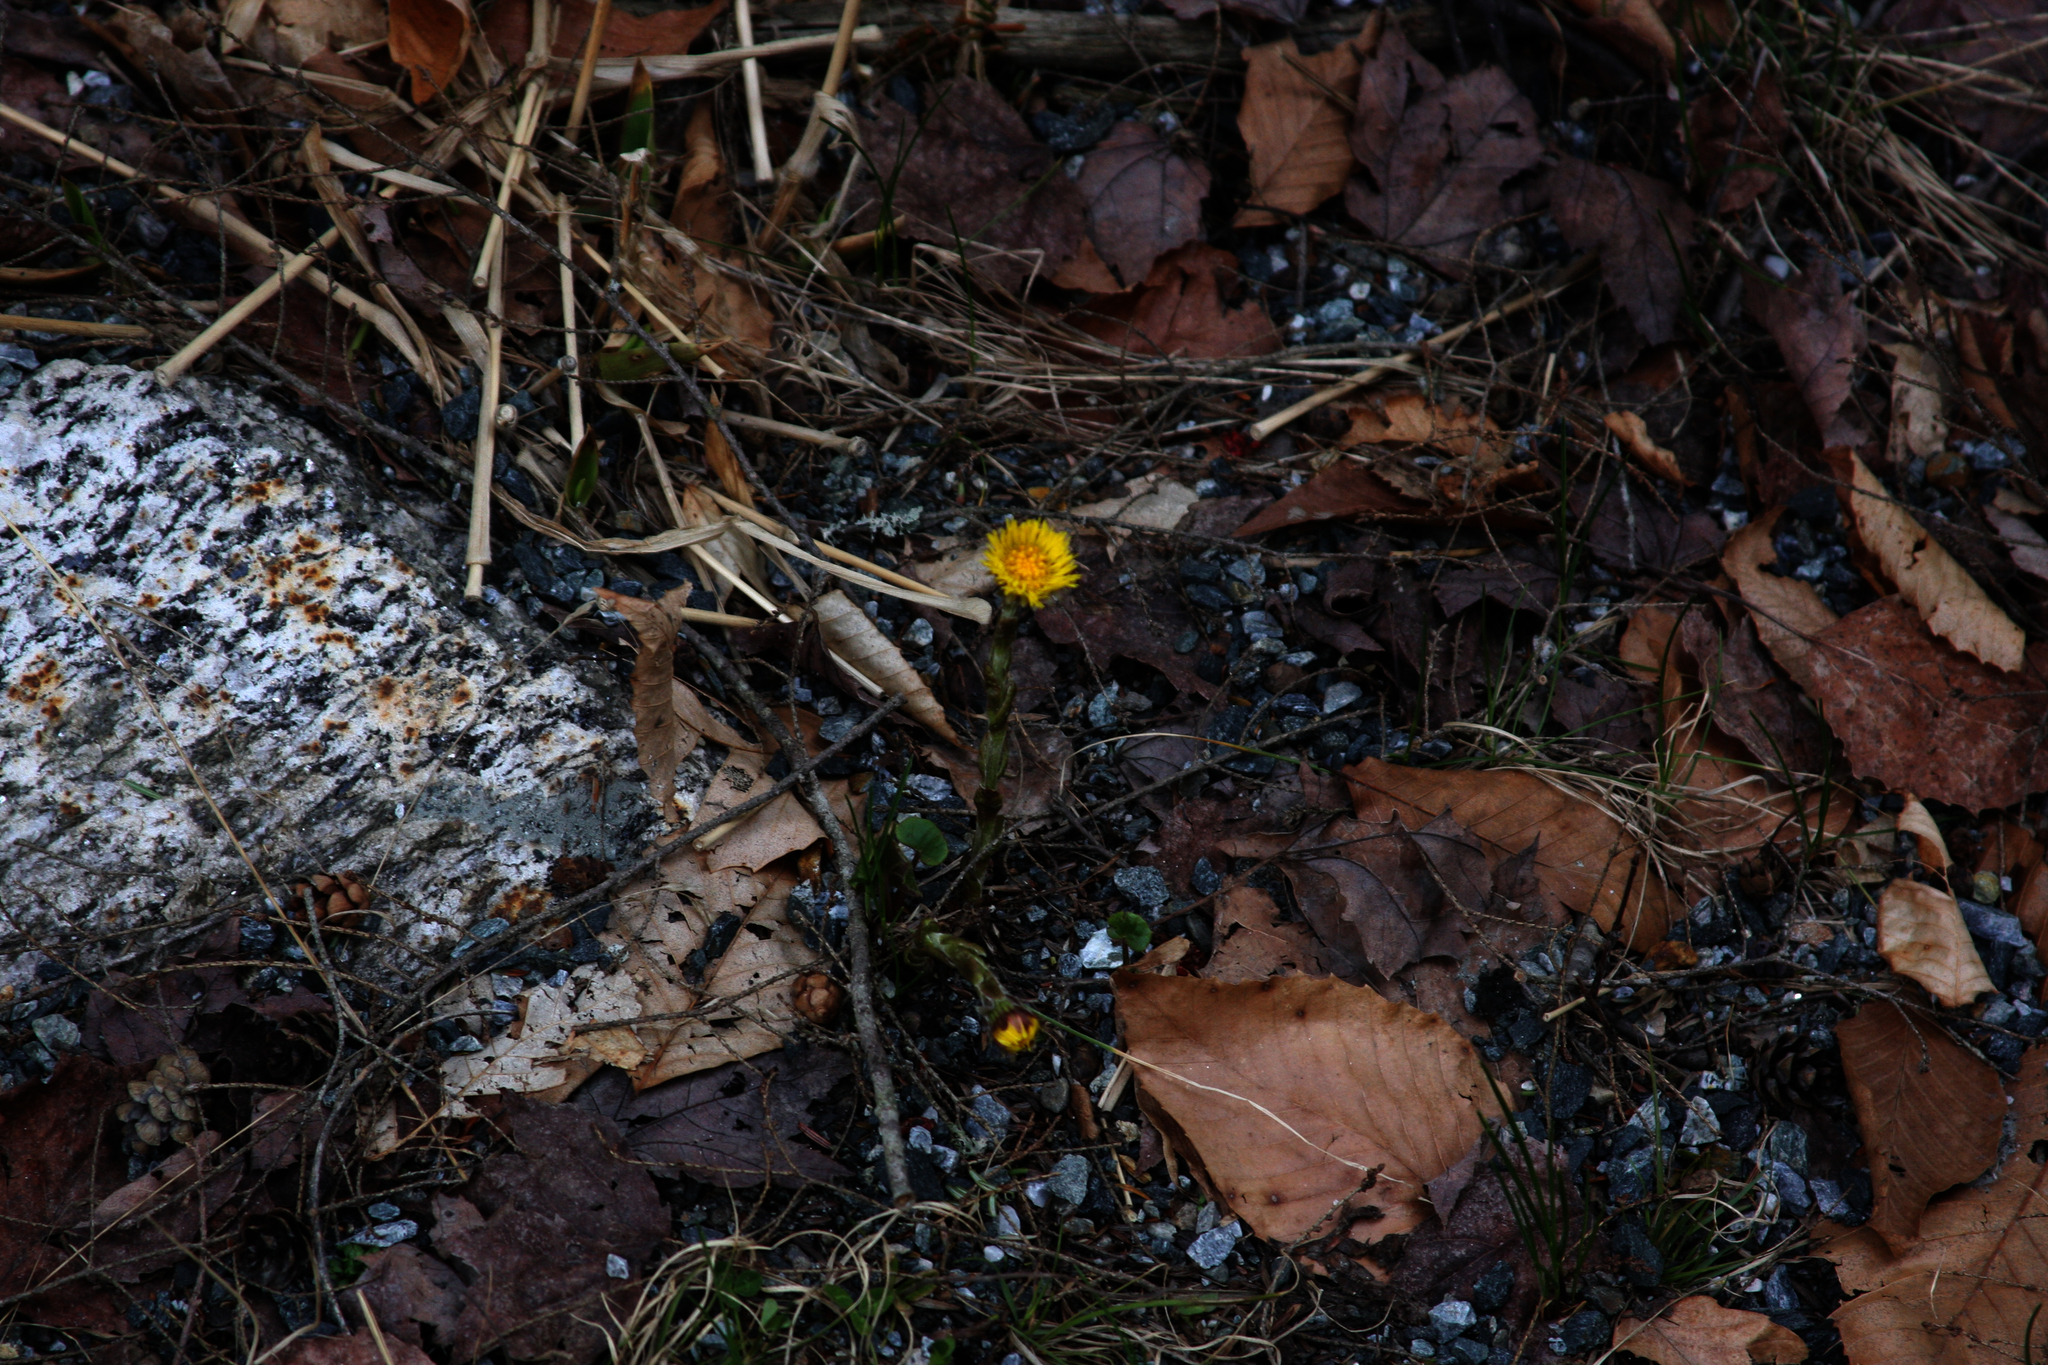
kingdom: Plantae
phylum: Tracheophyta
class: Magnoliopsida
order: Asterales
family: Asteraceae
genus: Tussilago
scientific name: Tussilago farfara
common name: Coltsfoot
